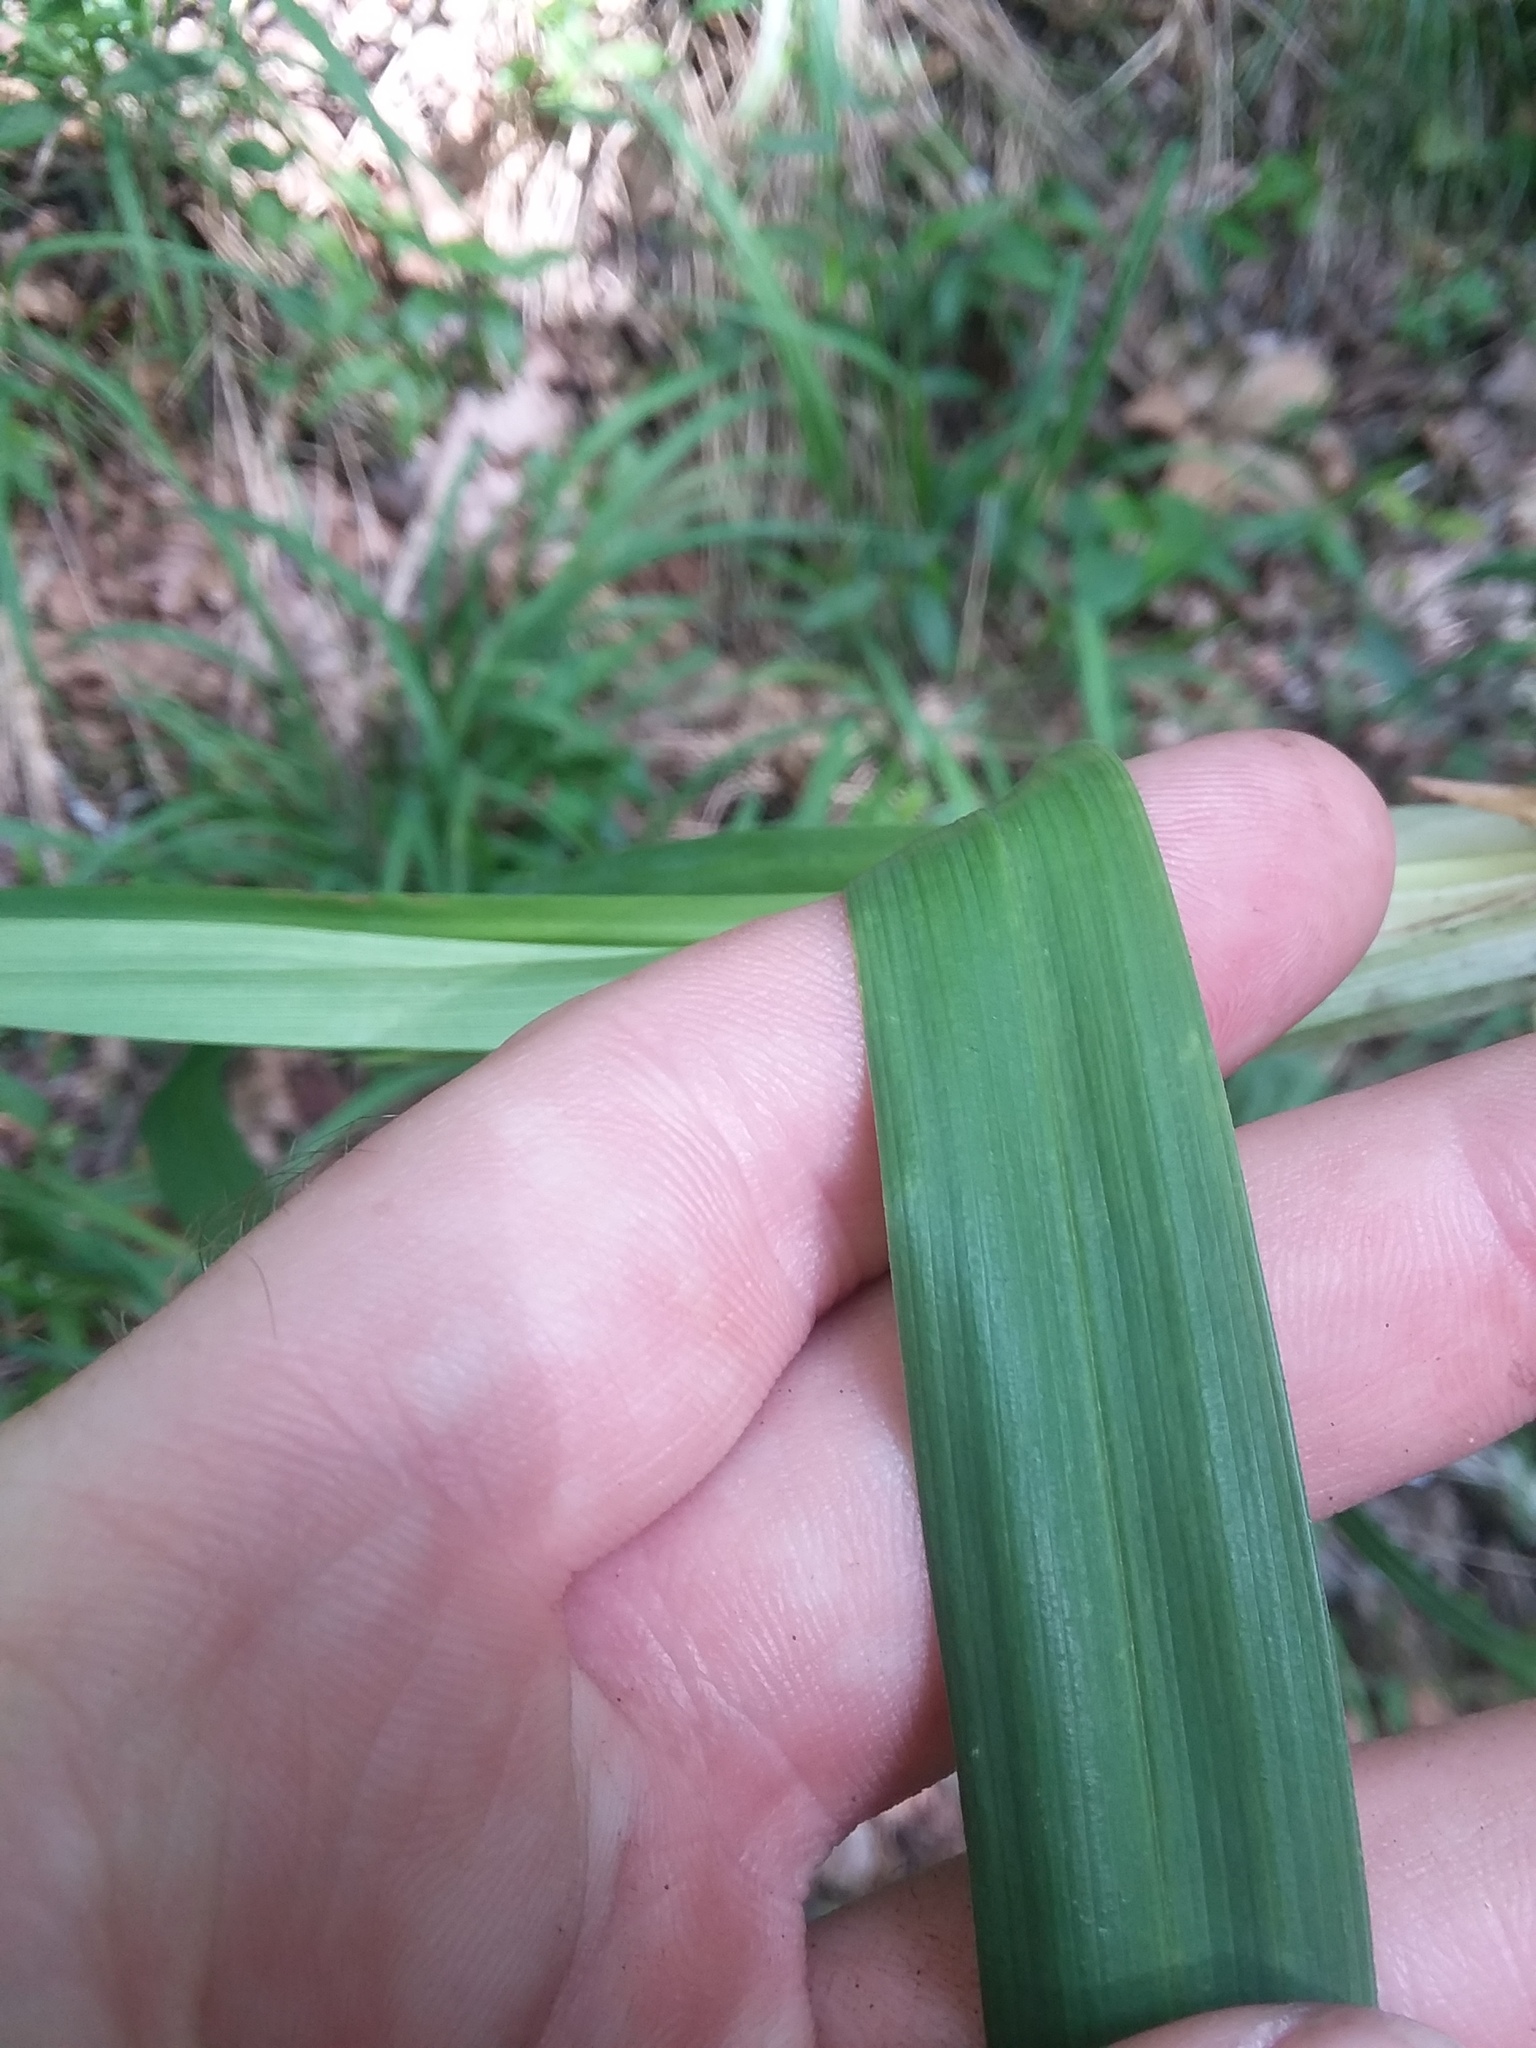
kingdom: Plantae
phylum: Tracheophyta
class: Liliopsida
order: Poales
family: Cyperaceae
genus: Carex
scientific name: Carex striatula
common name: Lined sedge
